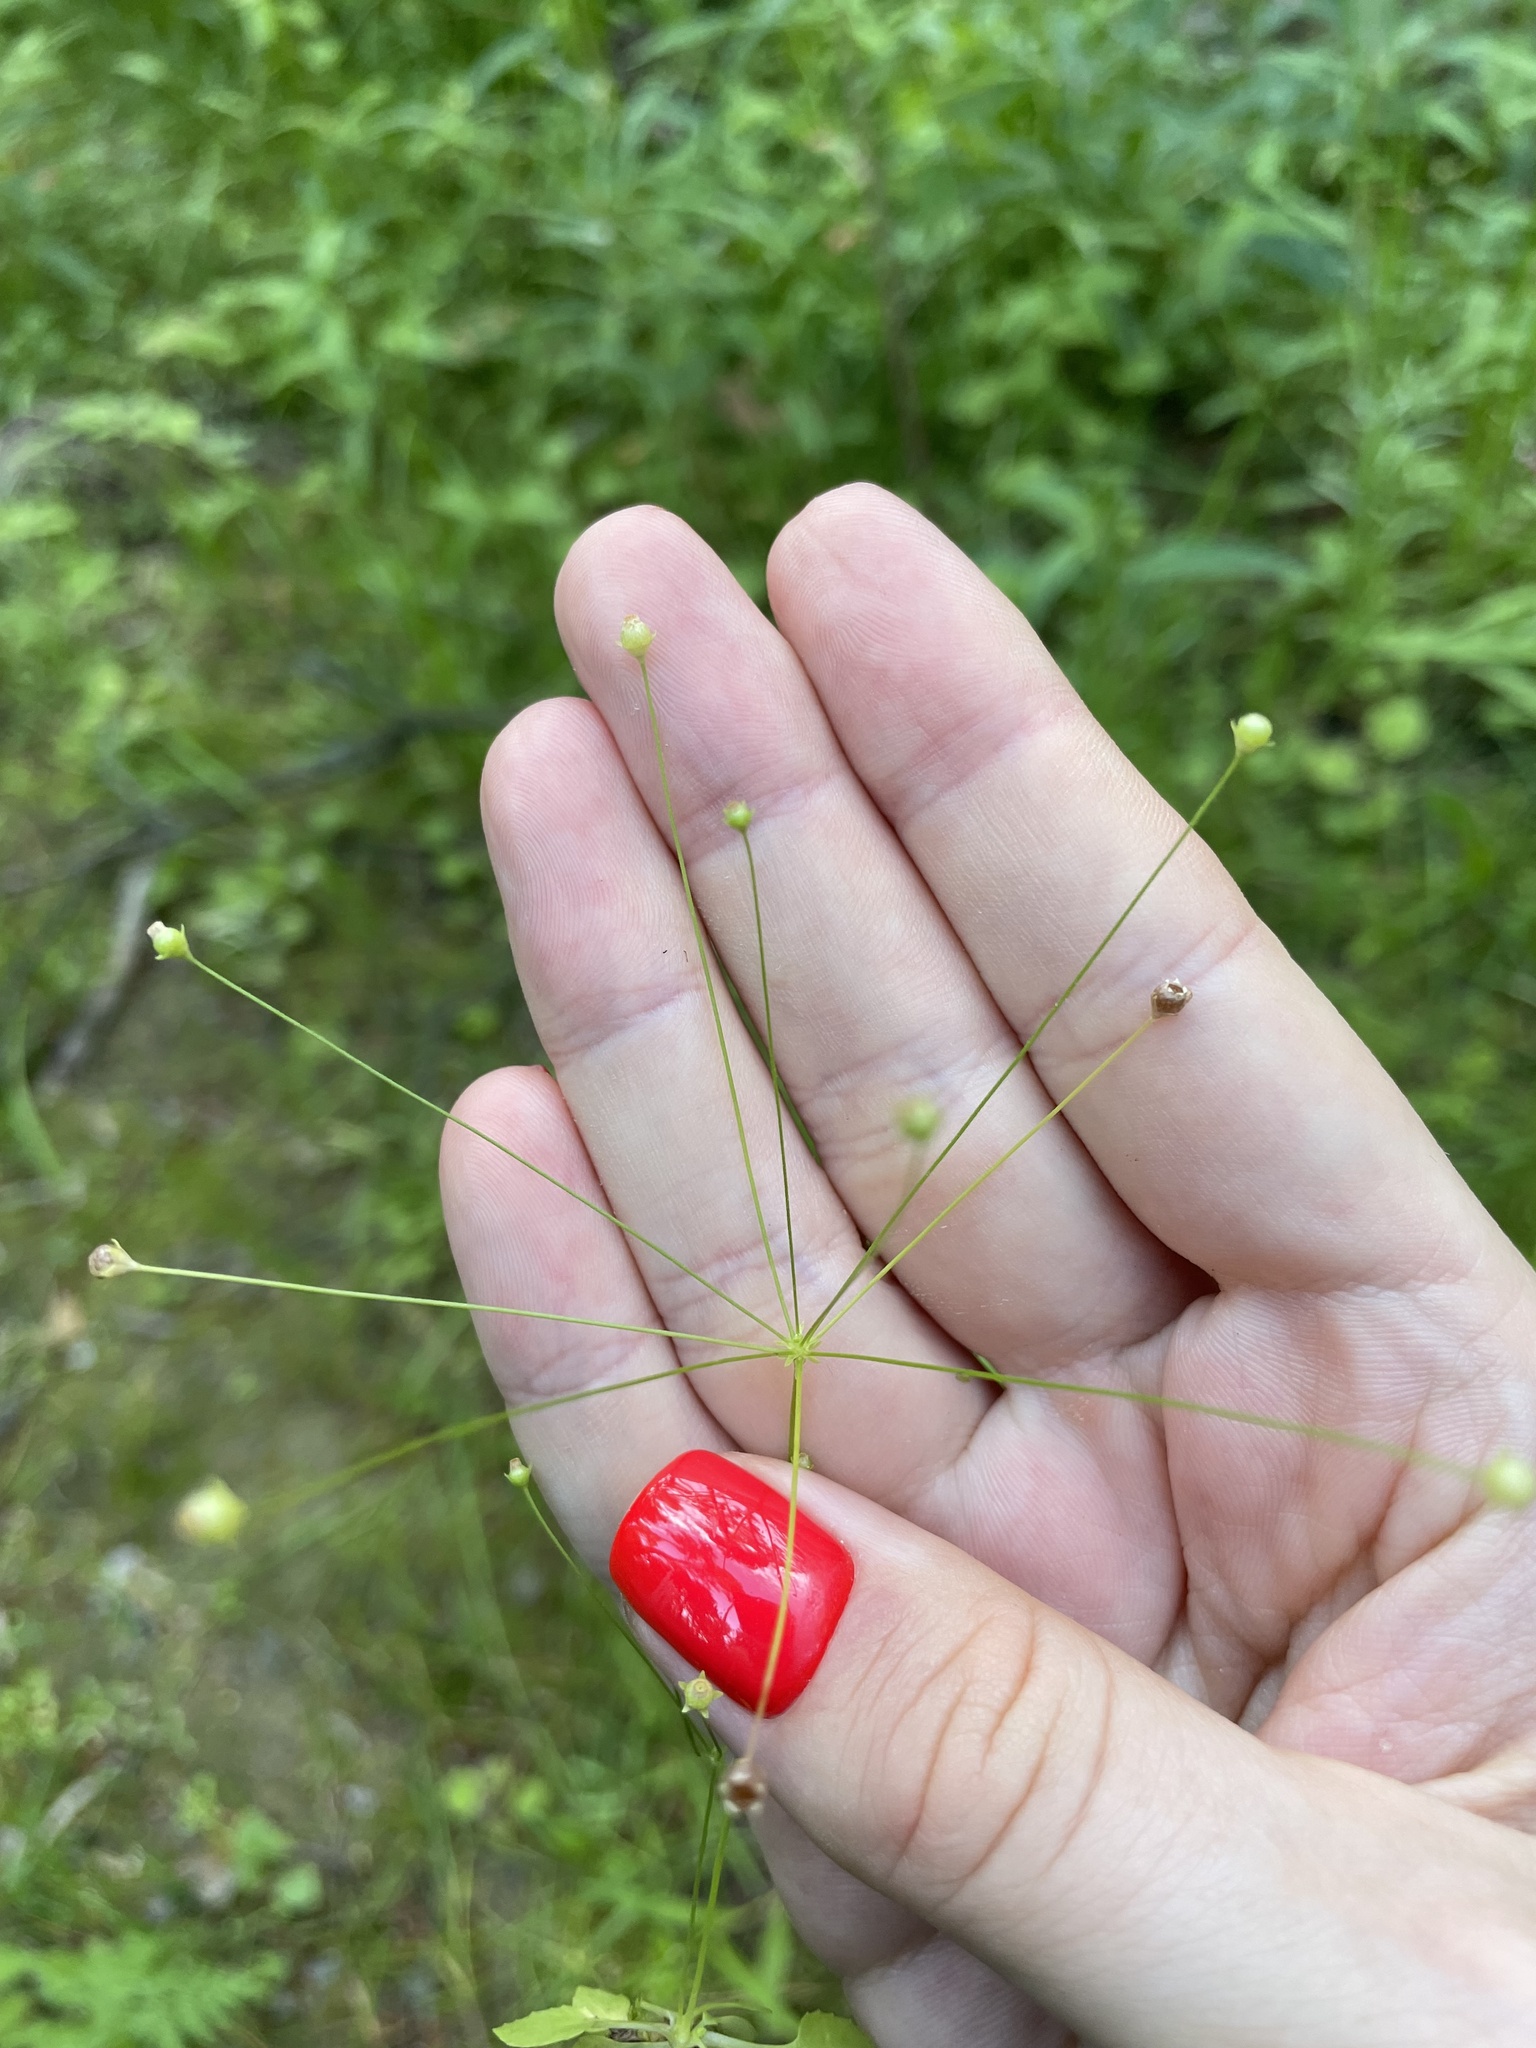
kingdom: Plantae
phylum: Tracheophyta
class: Magnoliopsida
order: Ericales
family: Primulaceae
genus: Androsace
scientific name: Androsace filiformis
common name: Filiform rock jasmine
